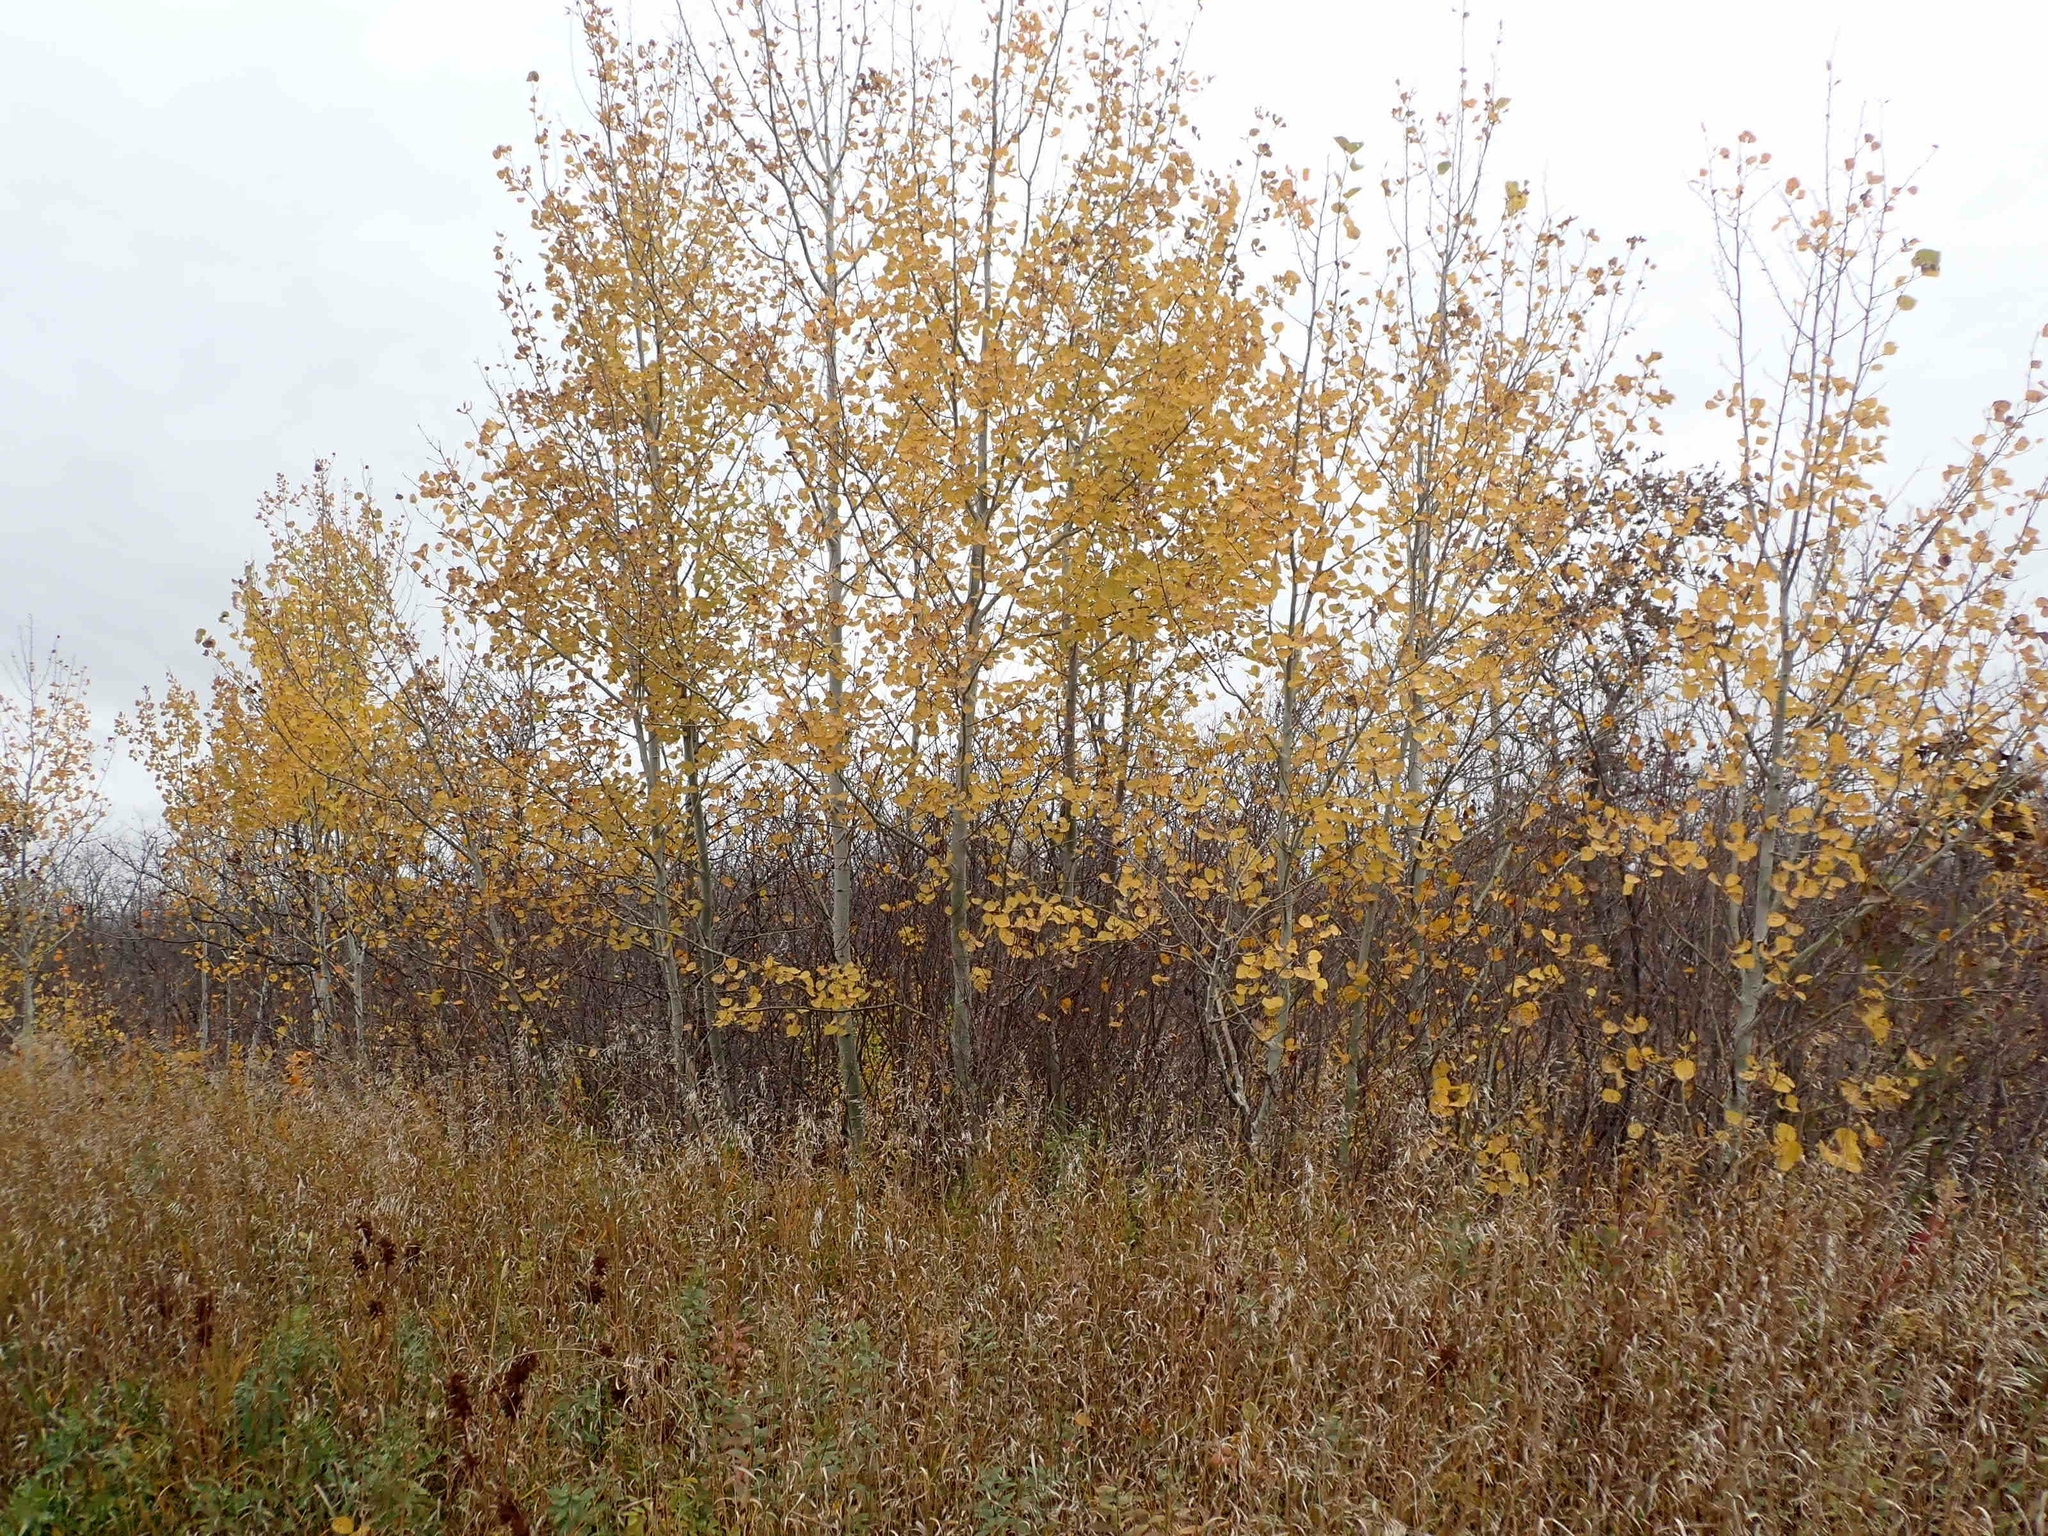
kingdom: Plantae
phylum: Tracheophyta
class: Magnoliopsida
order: Malpighiales
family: Salicaceae
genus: Populus
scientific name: Populus tremuloides
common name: Quaking aspen
